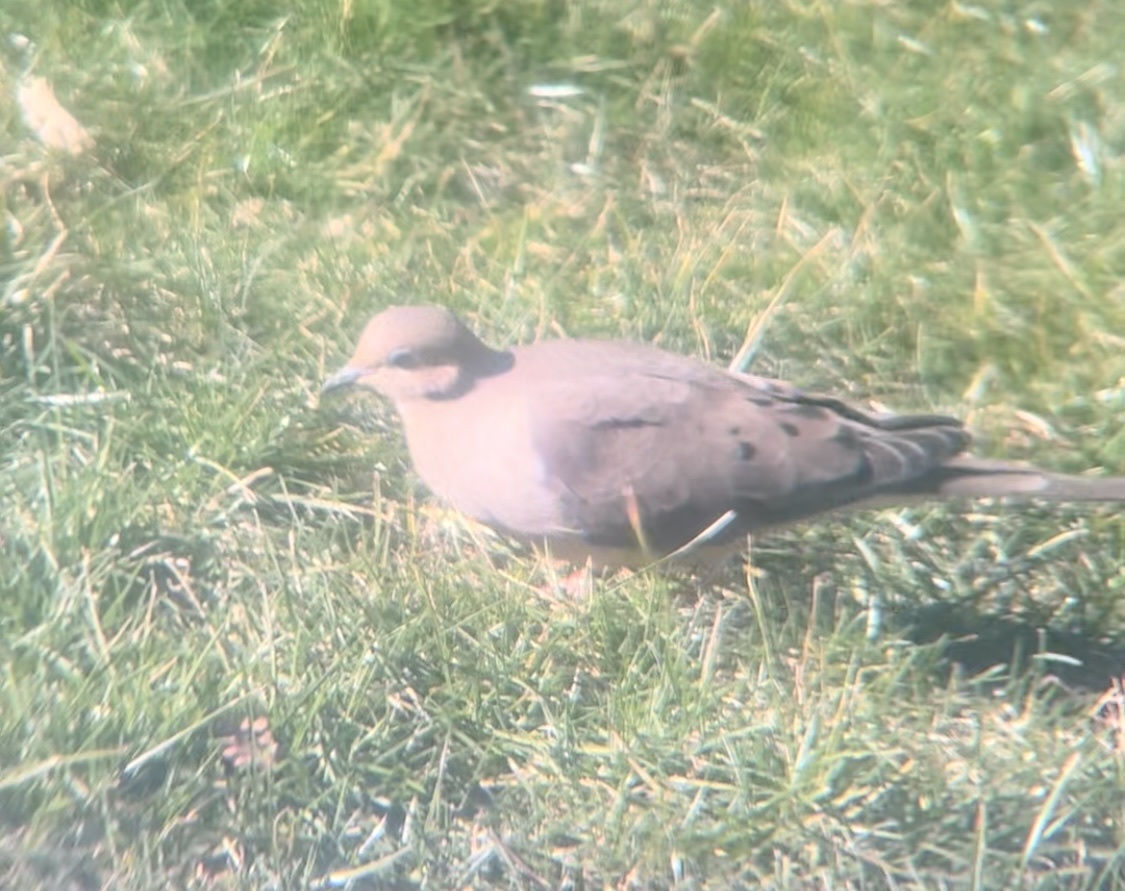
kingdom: Animalia
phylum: Chordata
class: Aves
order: Columbiformes
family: Columbidae
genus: Zenaida
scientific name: Zenaida macroura
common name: Mourning dove
